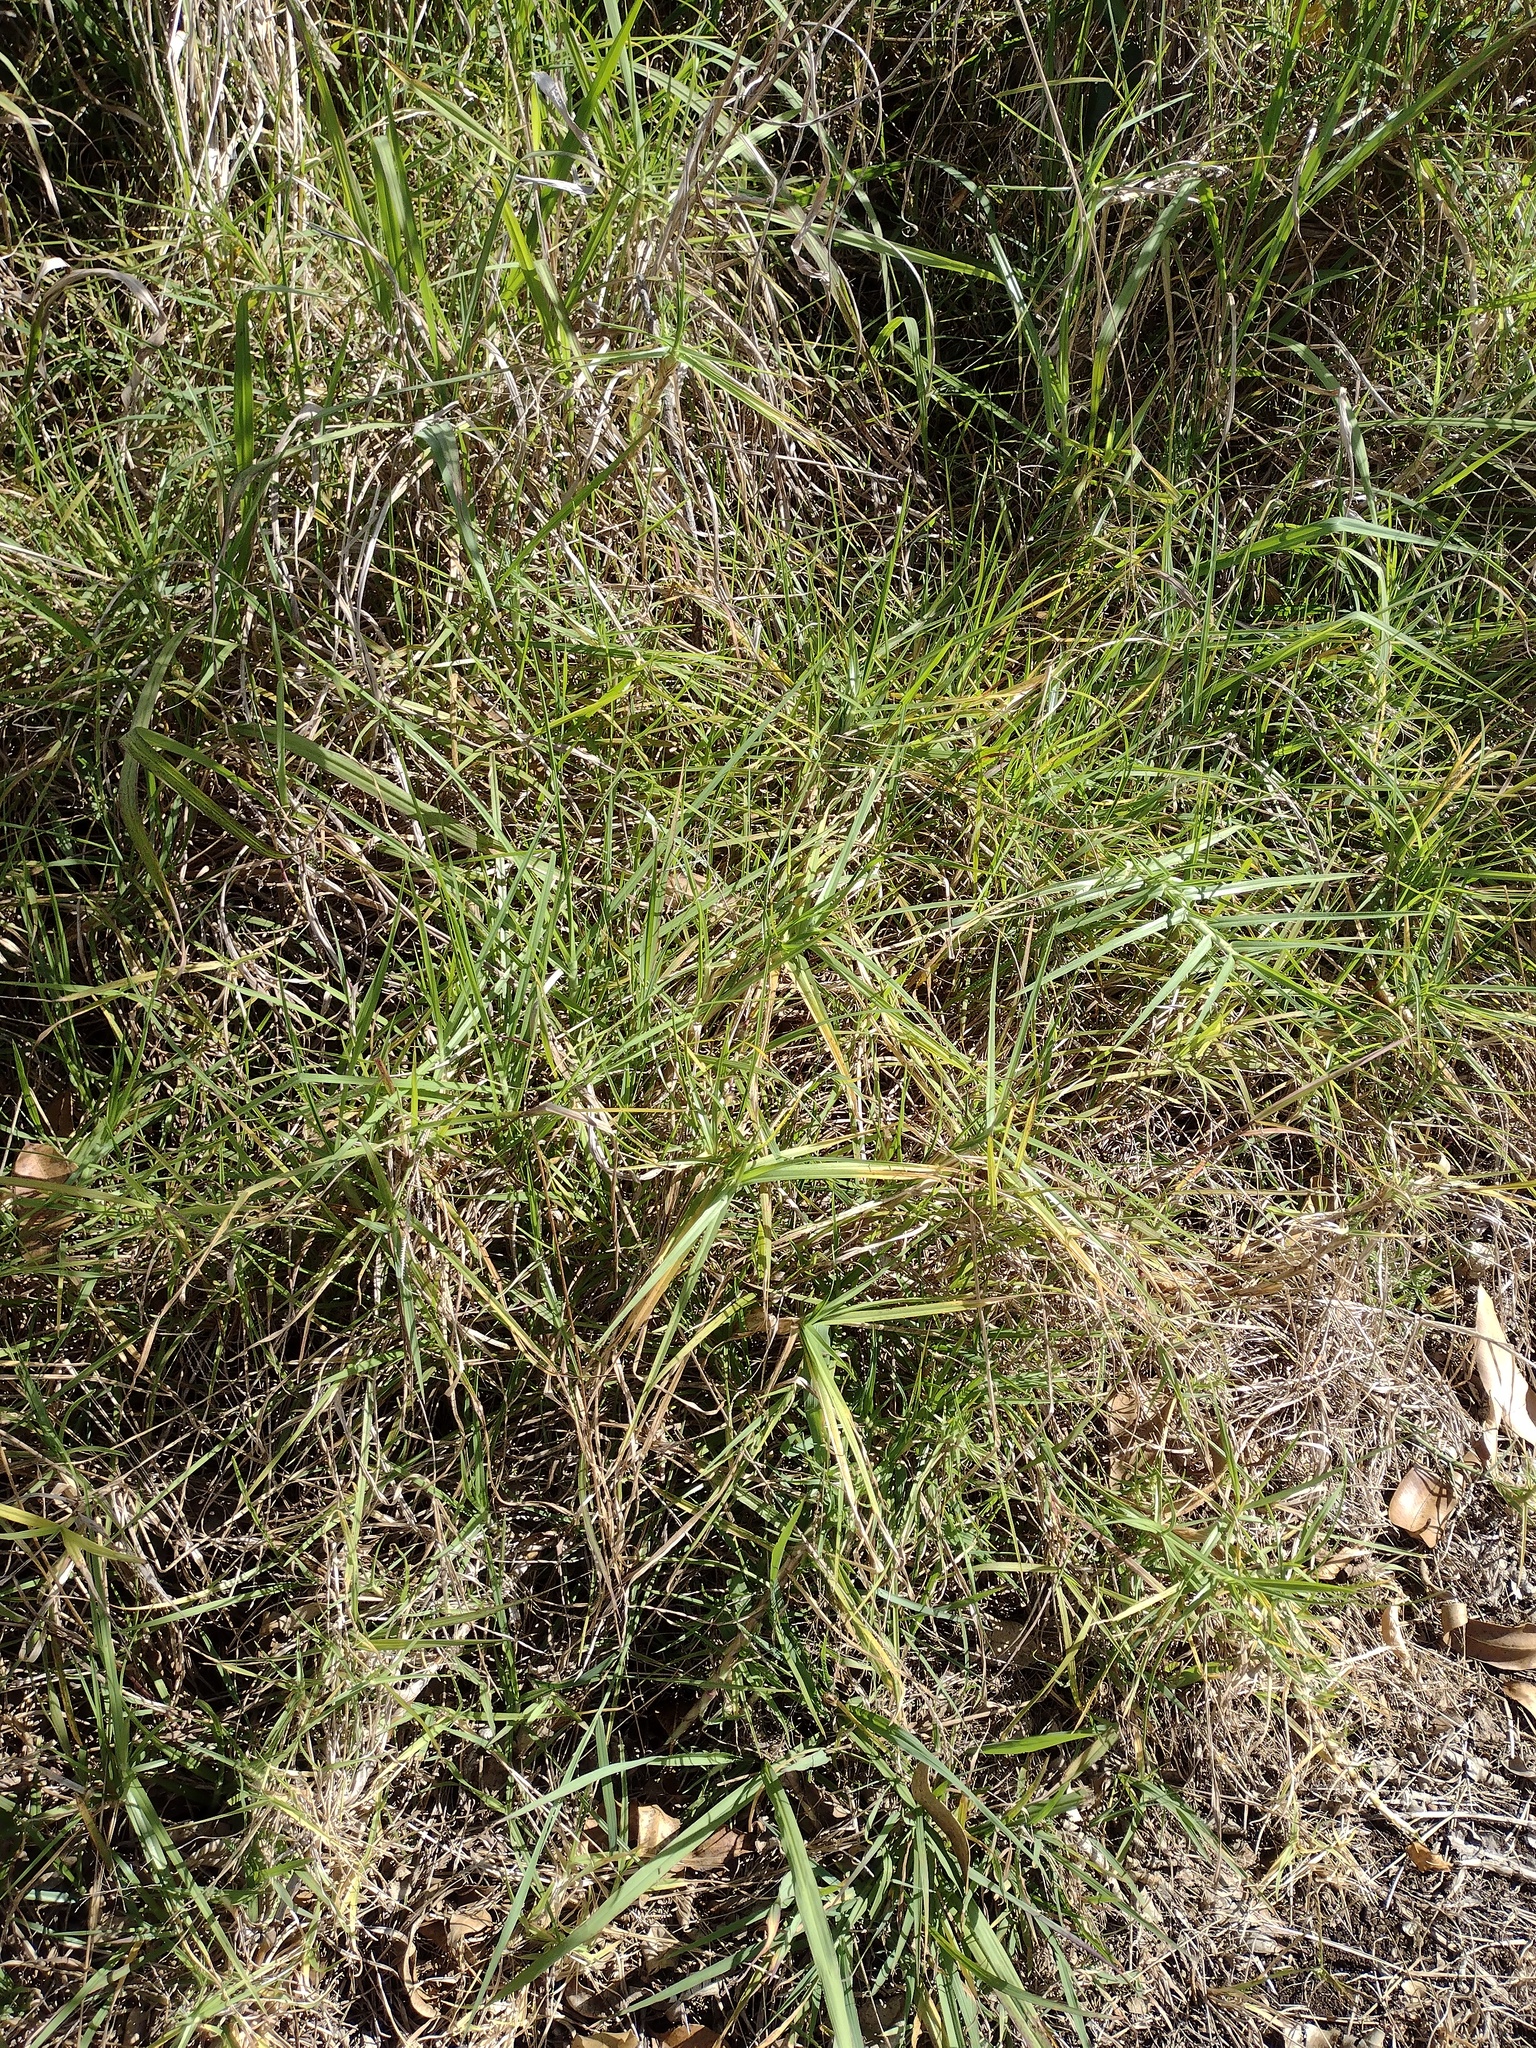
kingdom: Plantae
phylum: Tracheophyta
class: Liliopsida
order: Poales
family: Poaceae
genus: Cenchrus
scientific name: Cenchrus clandestinus
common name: Kikuyugrass
